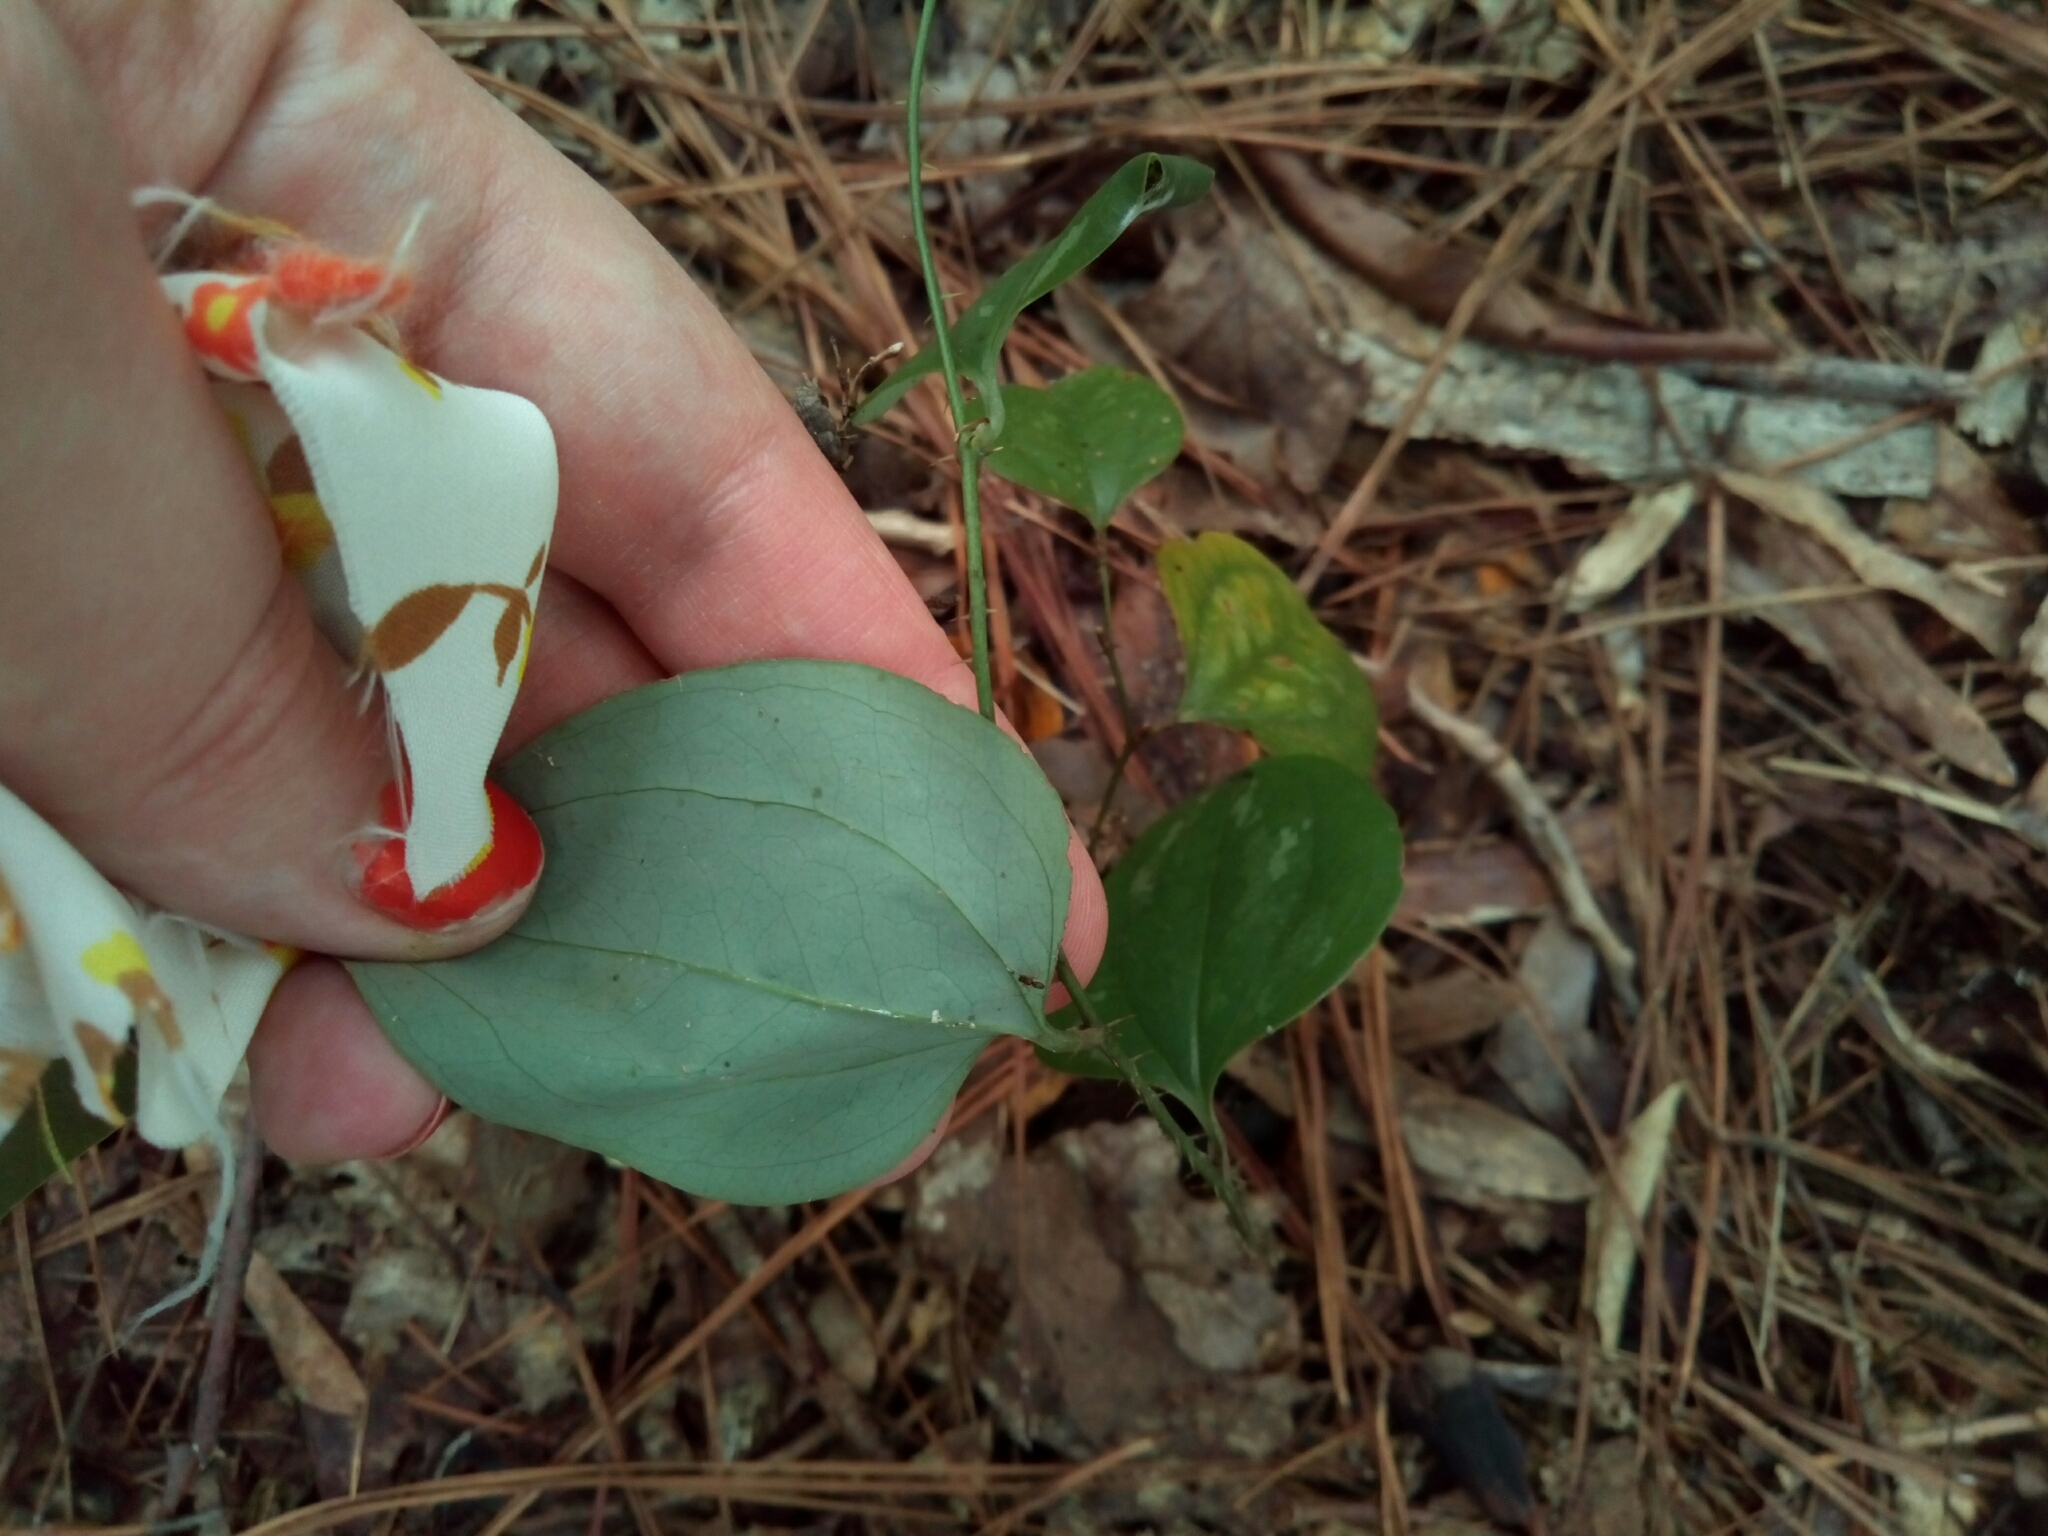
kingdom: Plantae
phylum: Tracheophyta
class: Liliopsida
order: Liliales
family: Smilacaceae
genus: Smilax
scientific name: Smilax glauca
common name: Cat greenbrier
